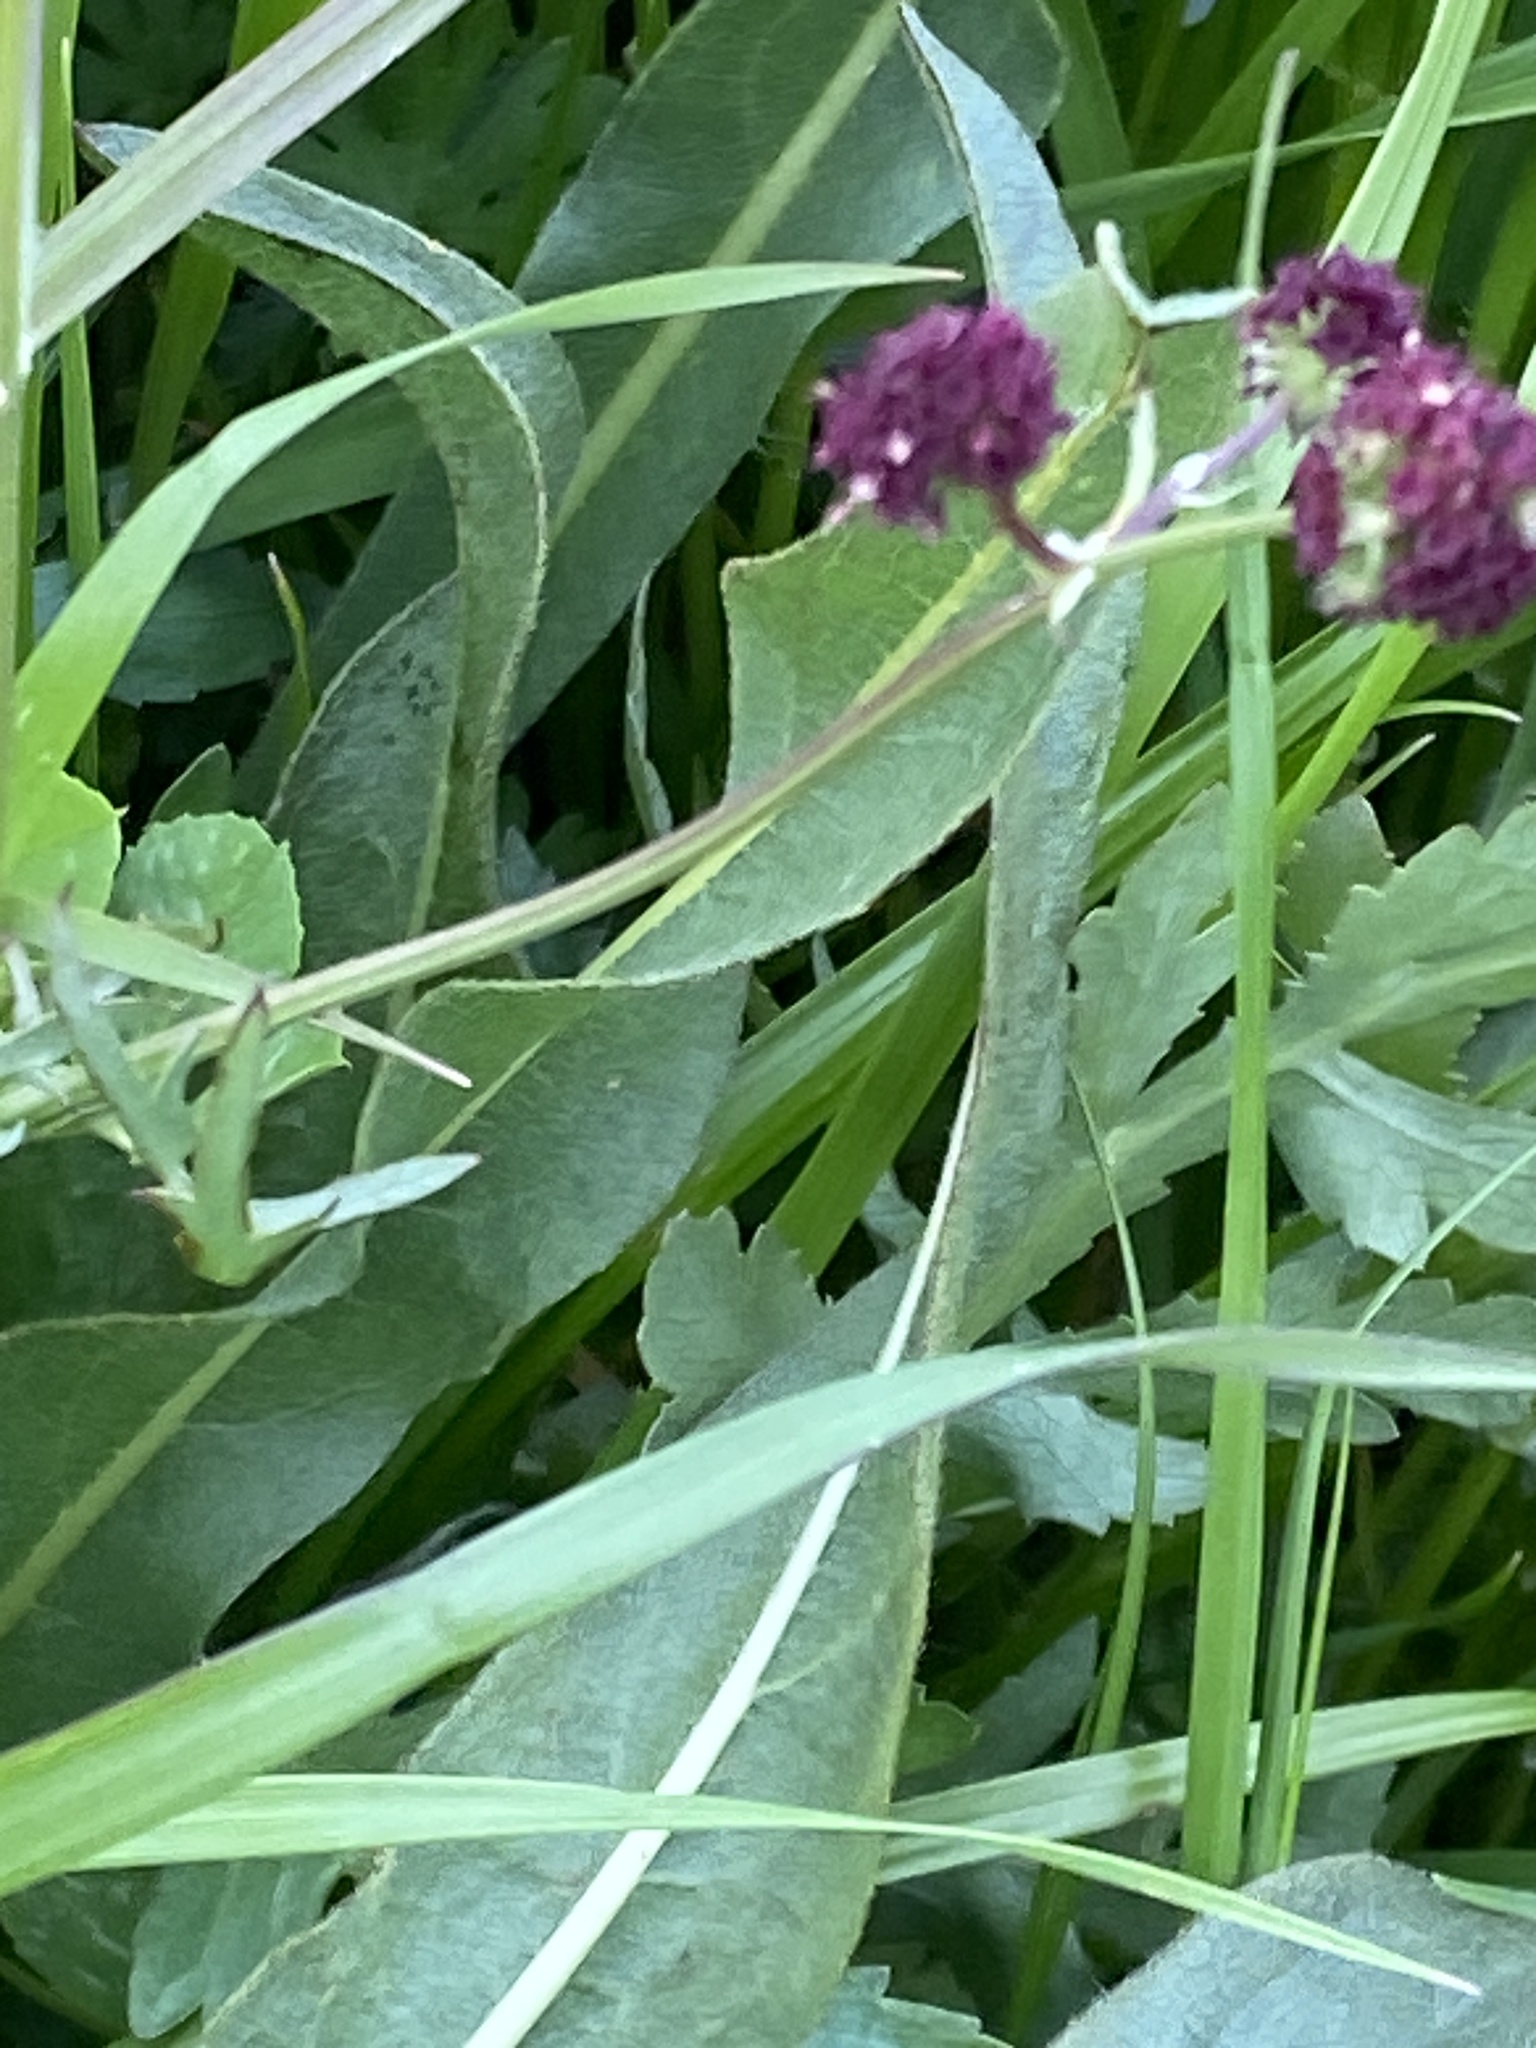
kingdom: Plantae
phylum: Tracheophyta
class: Magnoliopsida
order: Apiales
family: Apiaceae
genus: Sanicula
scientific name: Sanicula bipinnatifida
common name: Shoe-buttons
